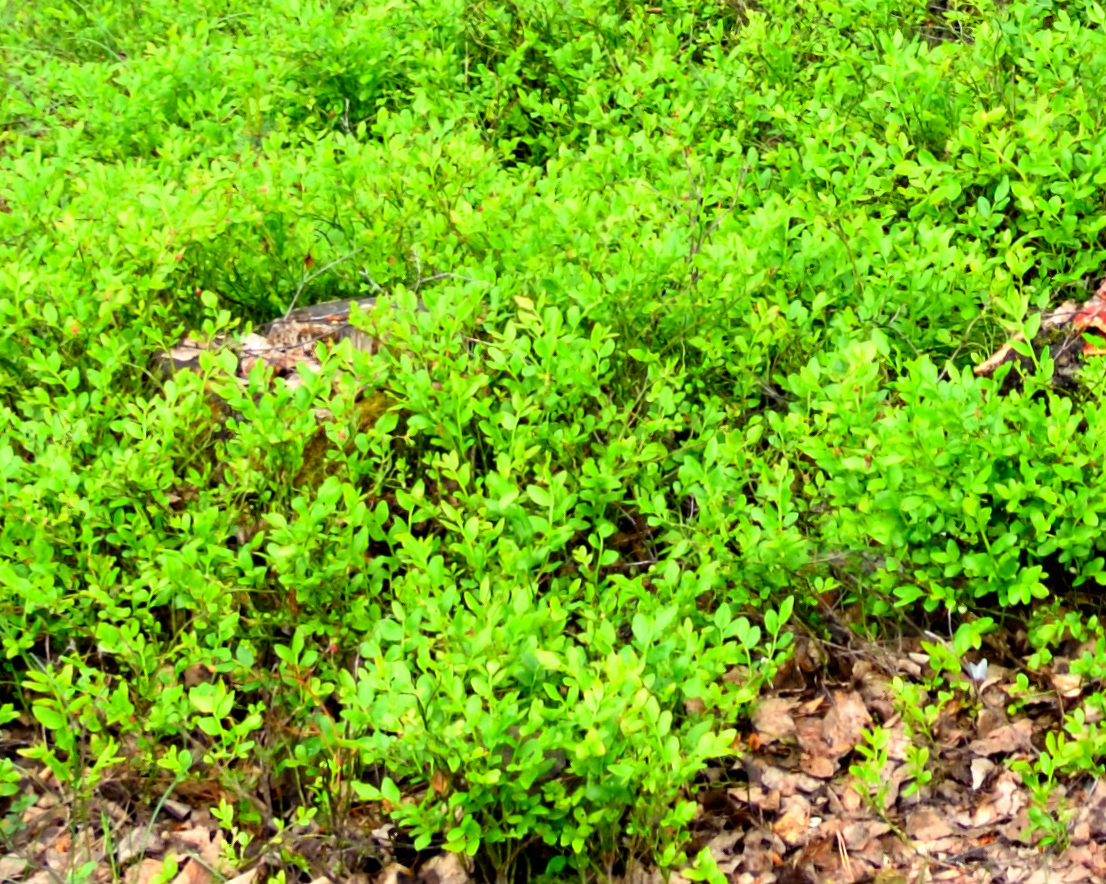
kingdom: Plantae
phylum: Tracheophyta
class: Magnoliopsida
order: Ericales
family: Ericaceae
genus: Vaccinium
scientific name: Vaccinium myrtillus
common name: Bilberry
